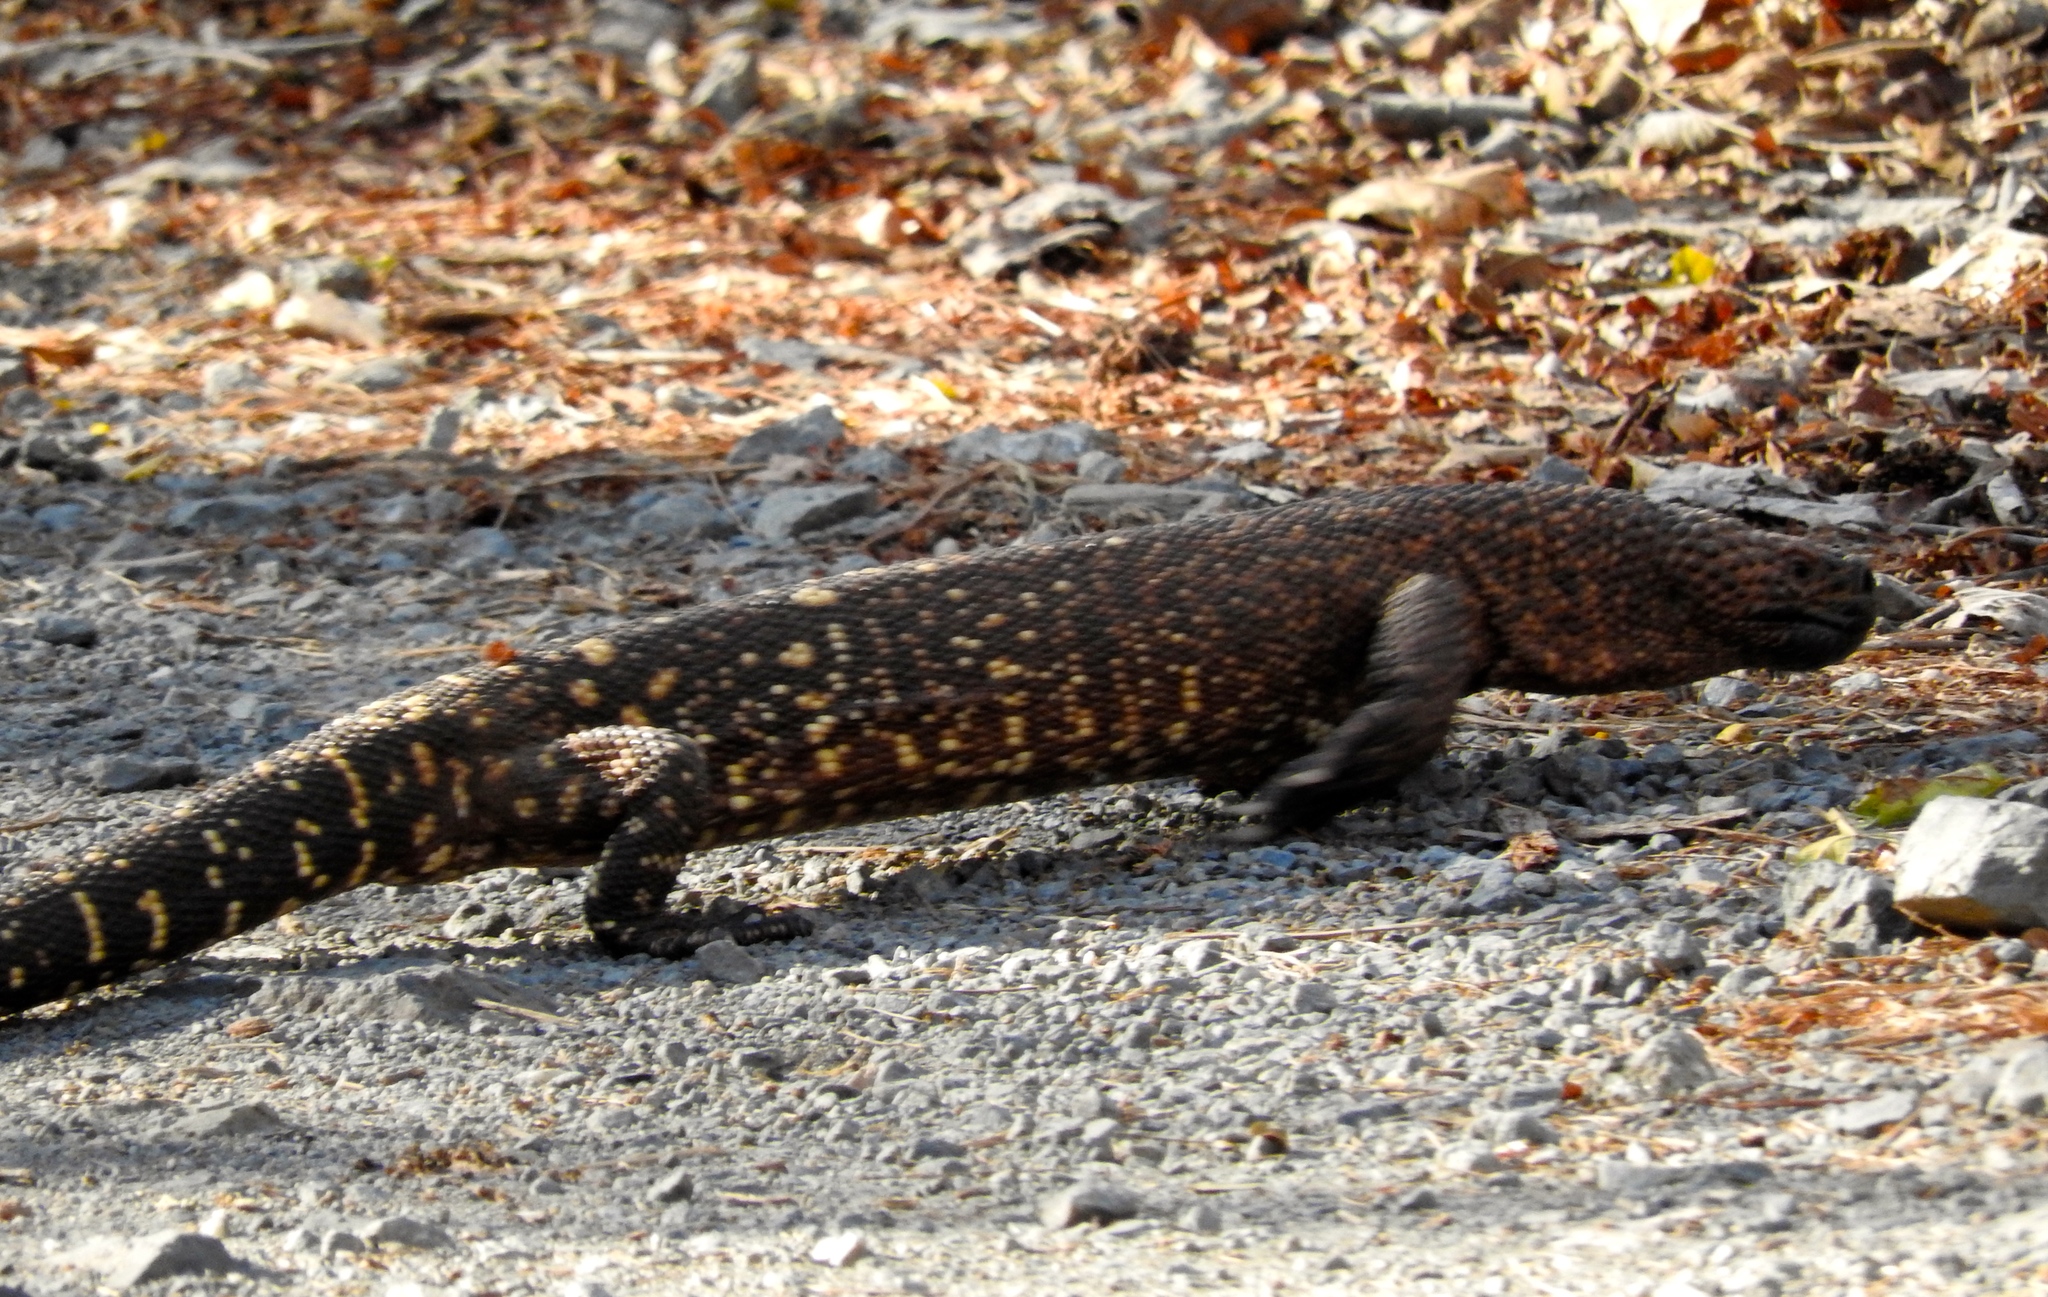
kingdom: Animalia
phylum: Chordata
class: Squamata
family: Helodermatidae
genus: Heloderma
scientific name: Heloderma horridum
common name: Mexican beaded lizard
